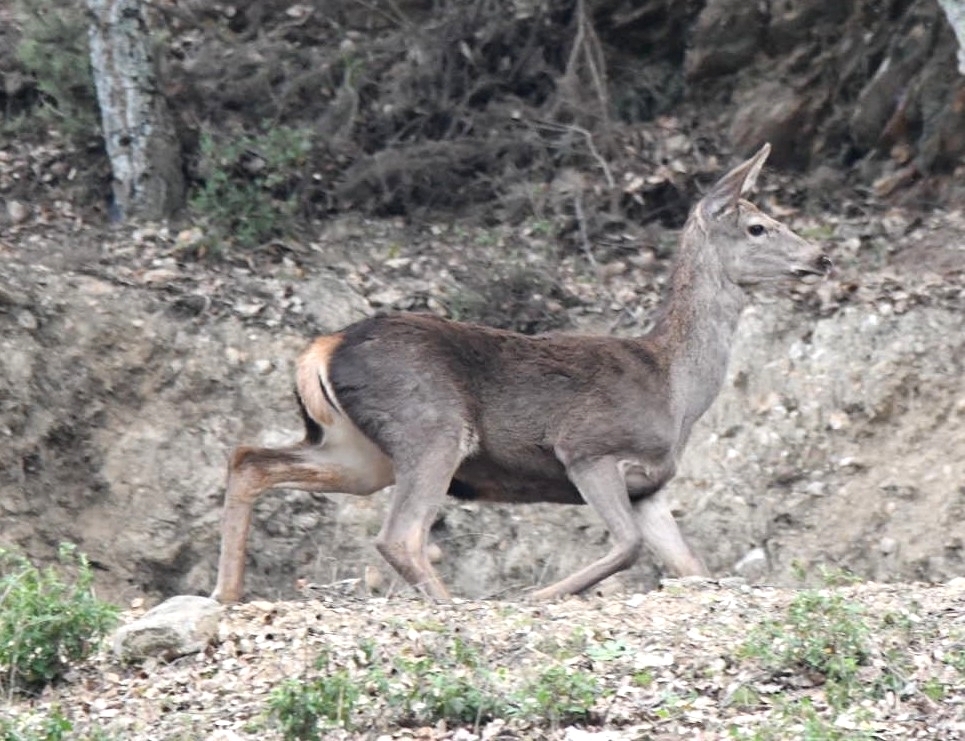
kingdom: Animalia
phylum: Chordata
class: Mammalia
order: Artiodactyla
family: Cervidae
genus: Cervus
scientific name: Cervus elaphus
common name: Red deer
